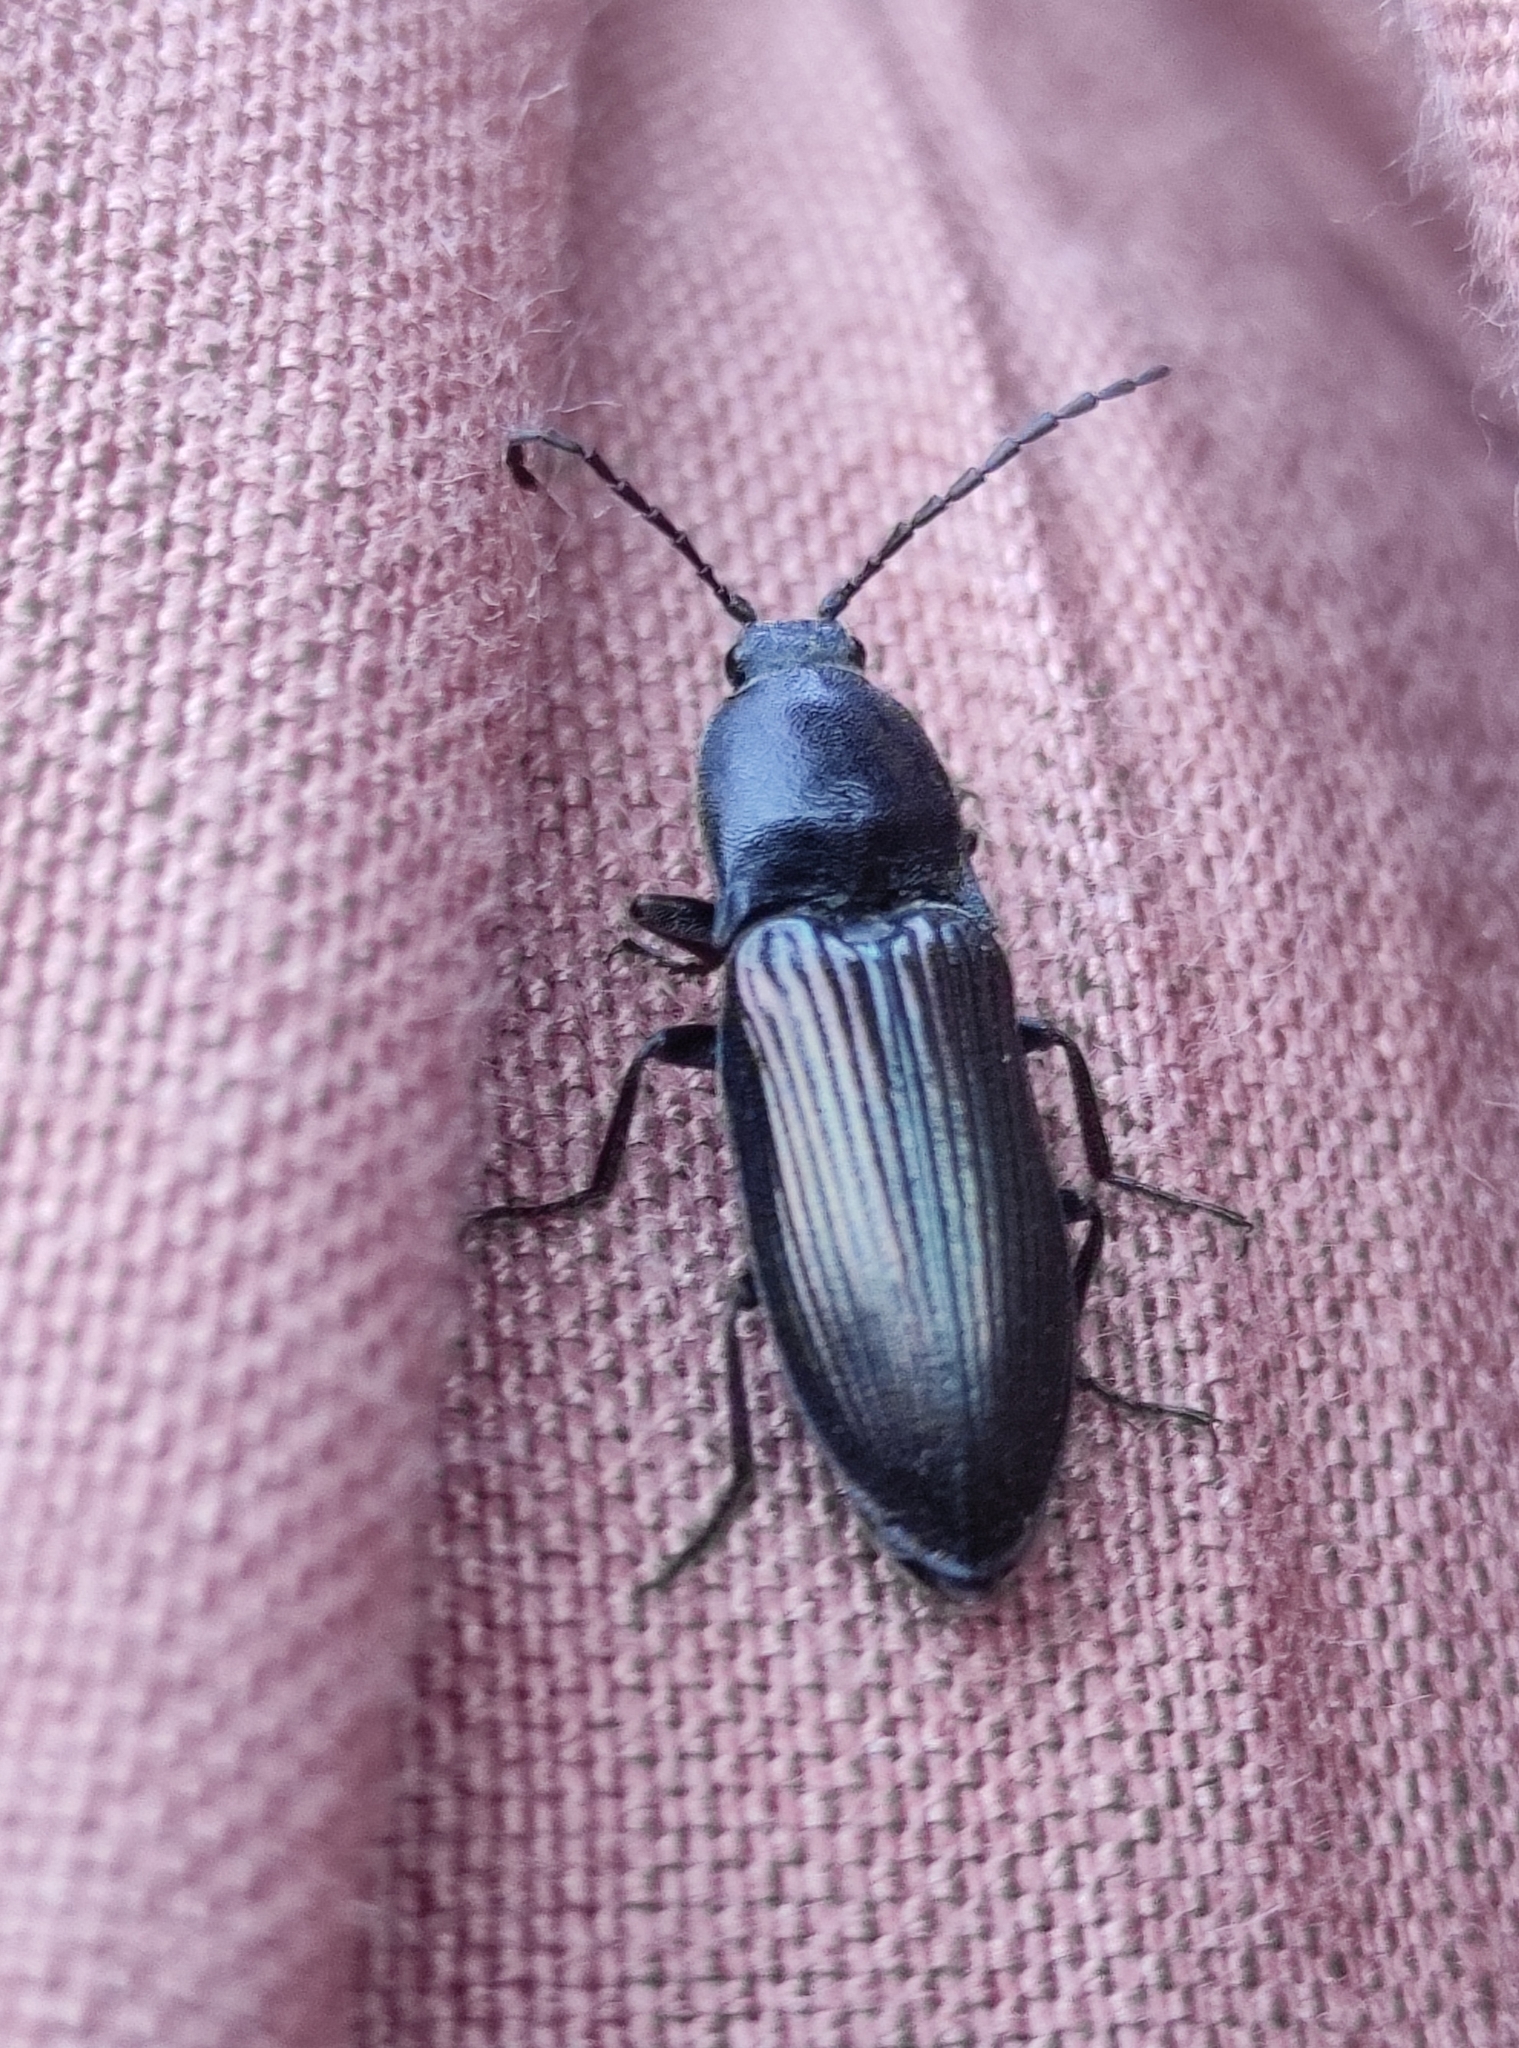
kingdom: Animalia
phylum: Arthropoda
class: Insecta
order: Coleoptera
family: Elateridae
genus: Selatosomus
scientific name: Selatosomus melancholicus
